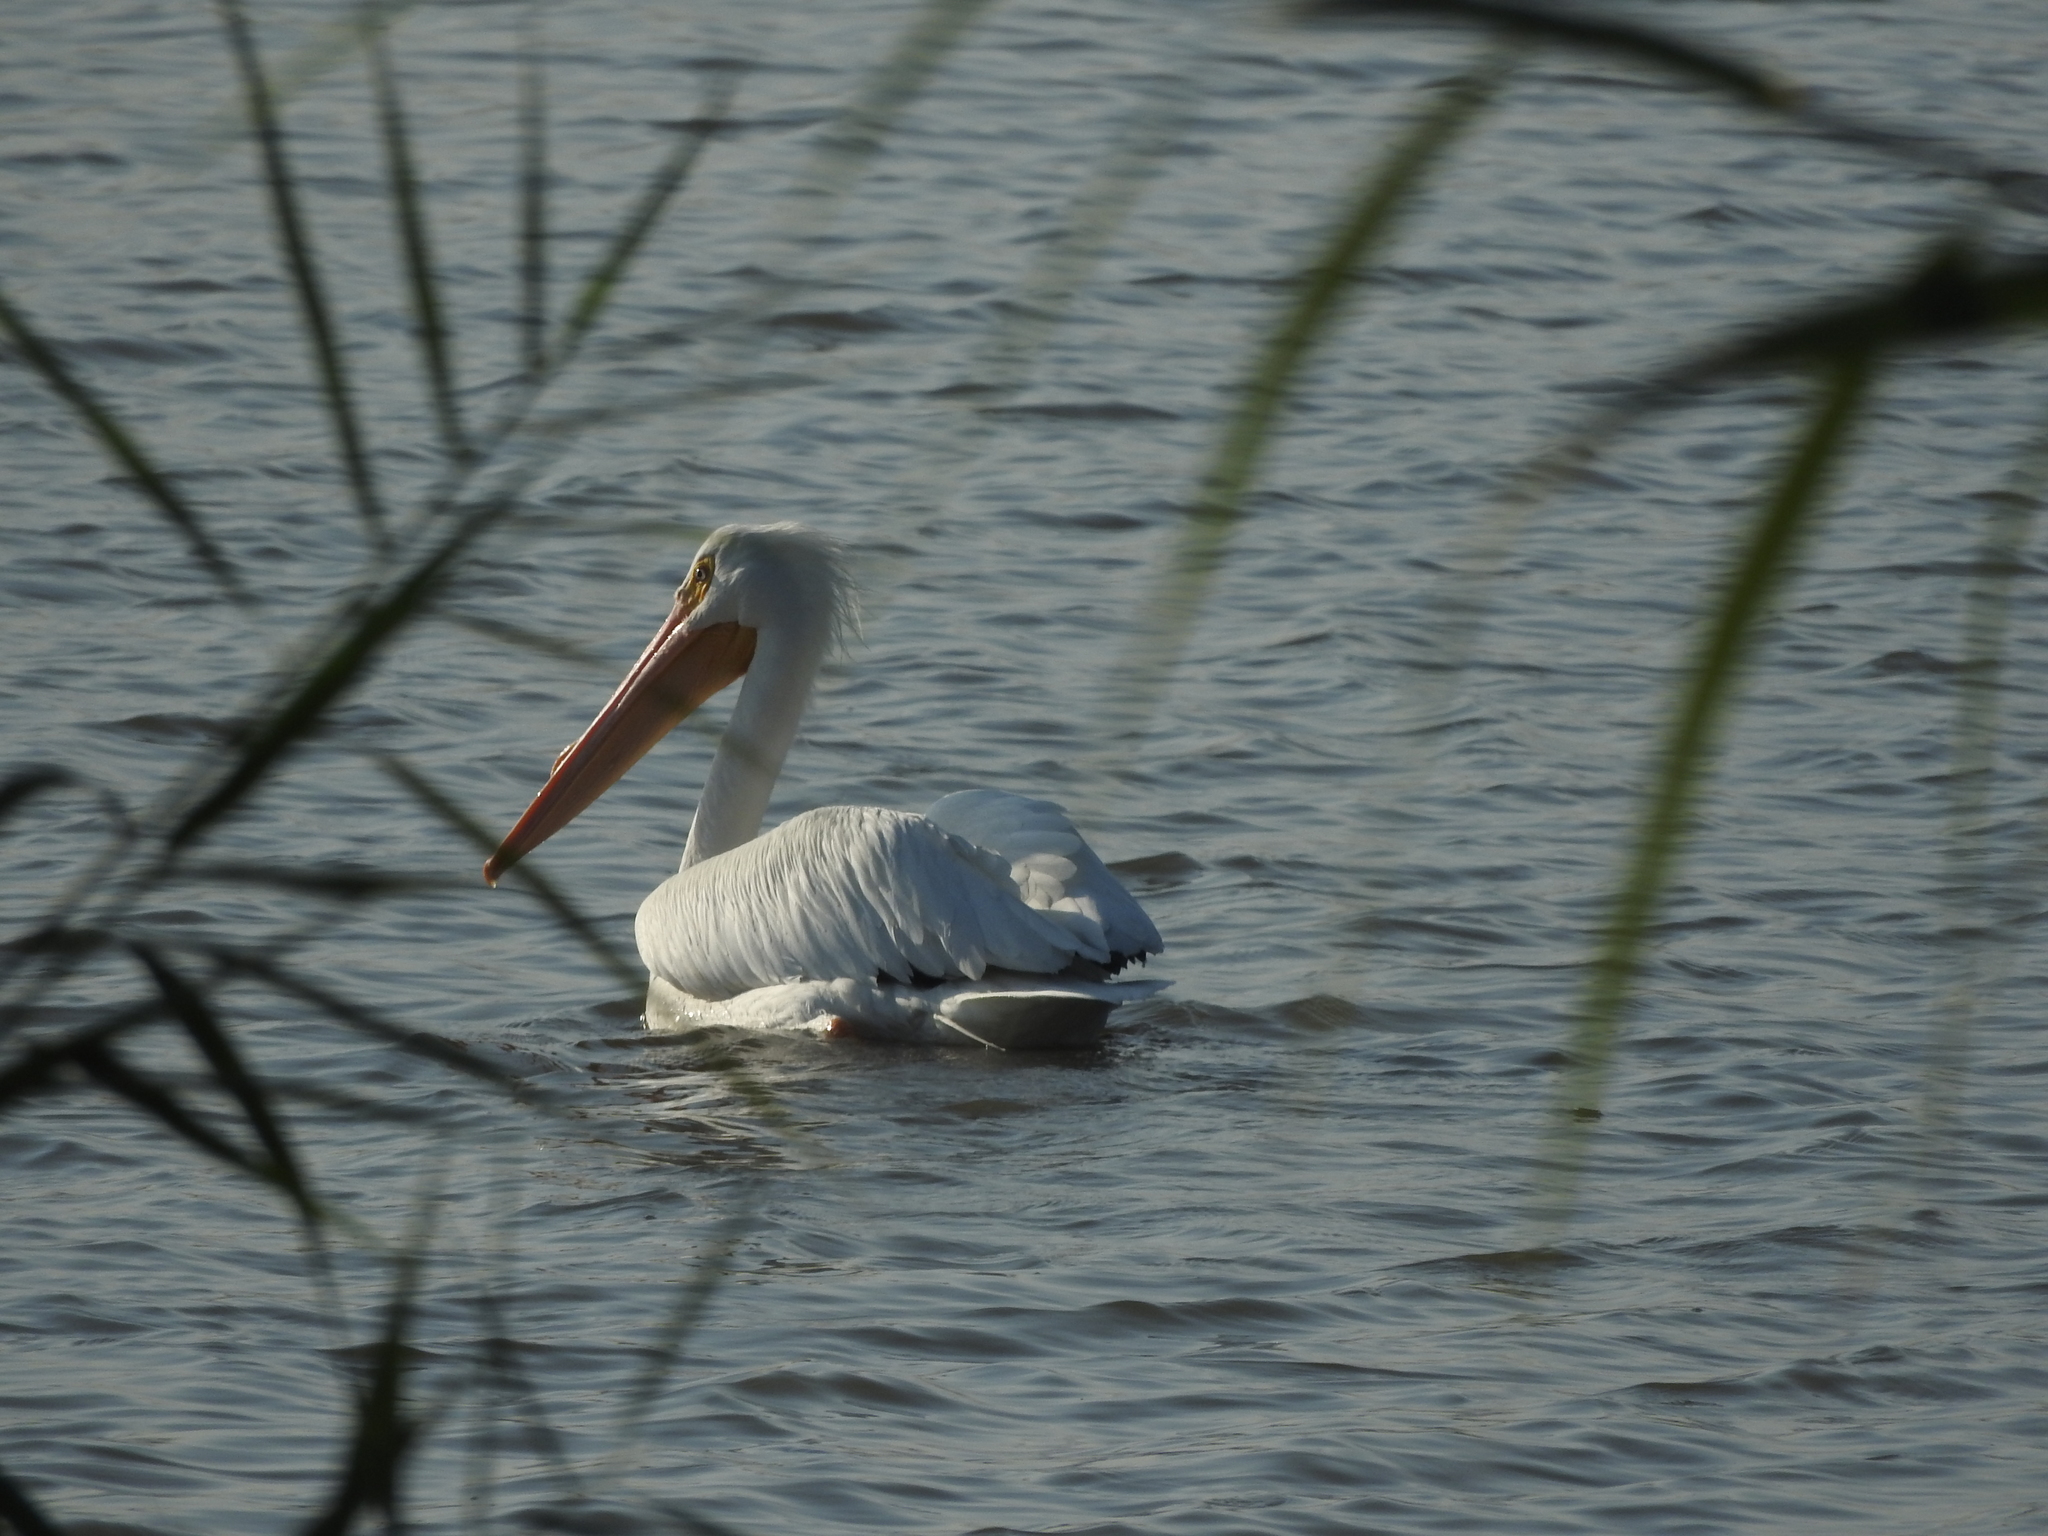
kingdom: Animalia
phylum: Chordata
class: Aves
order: Pelecaniformes
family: Pelecanidae
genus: Pelecanus
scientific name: Pelecanus erythrorhynchos
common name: American white pelican
